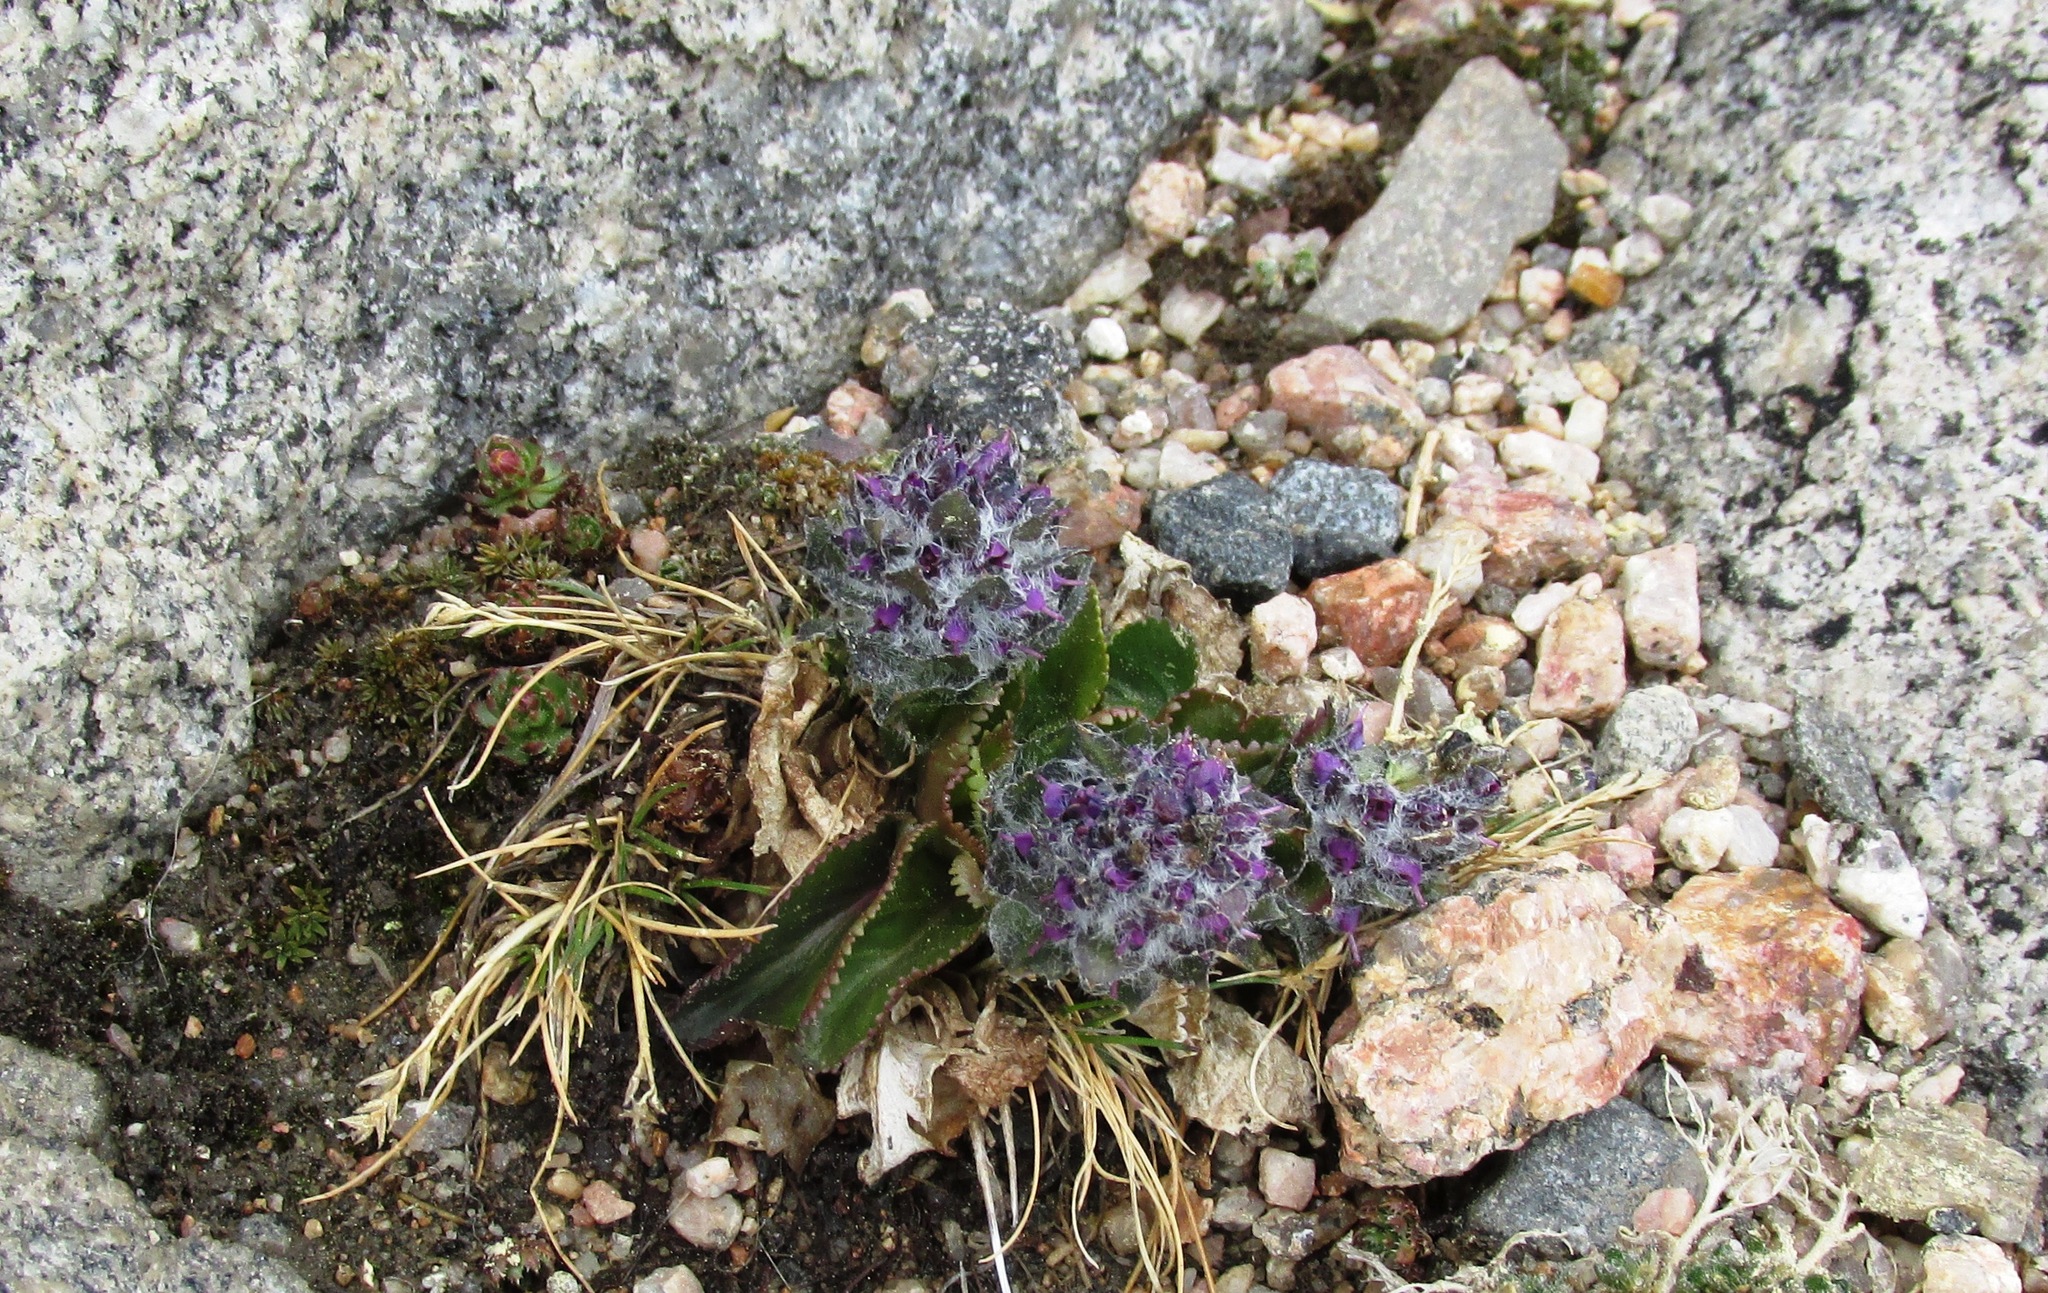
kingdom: Plantae
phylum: Tracheophyta
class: Magnoliopsida
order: Lamiales
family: Plantaginaceae
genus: Synthyris
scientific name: Synthyris alpina
